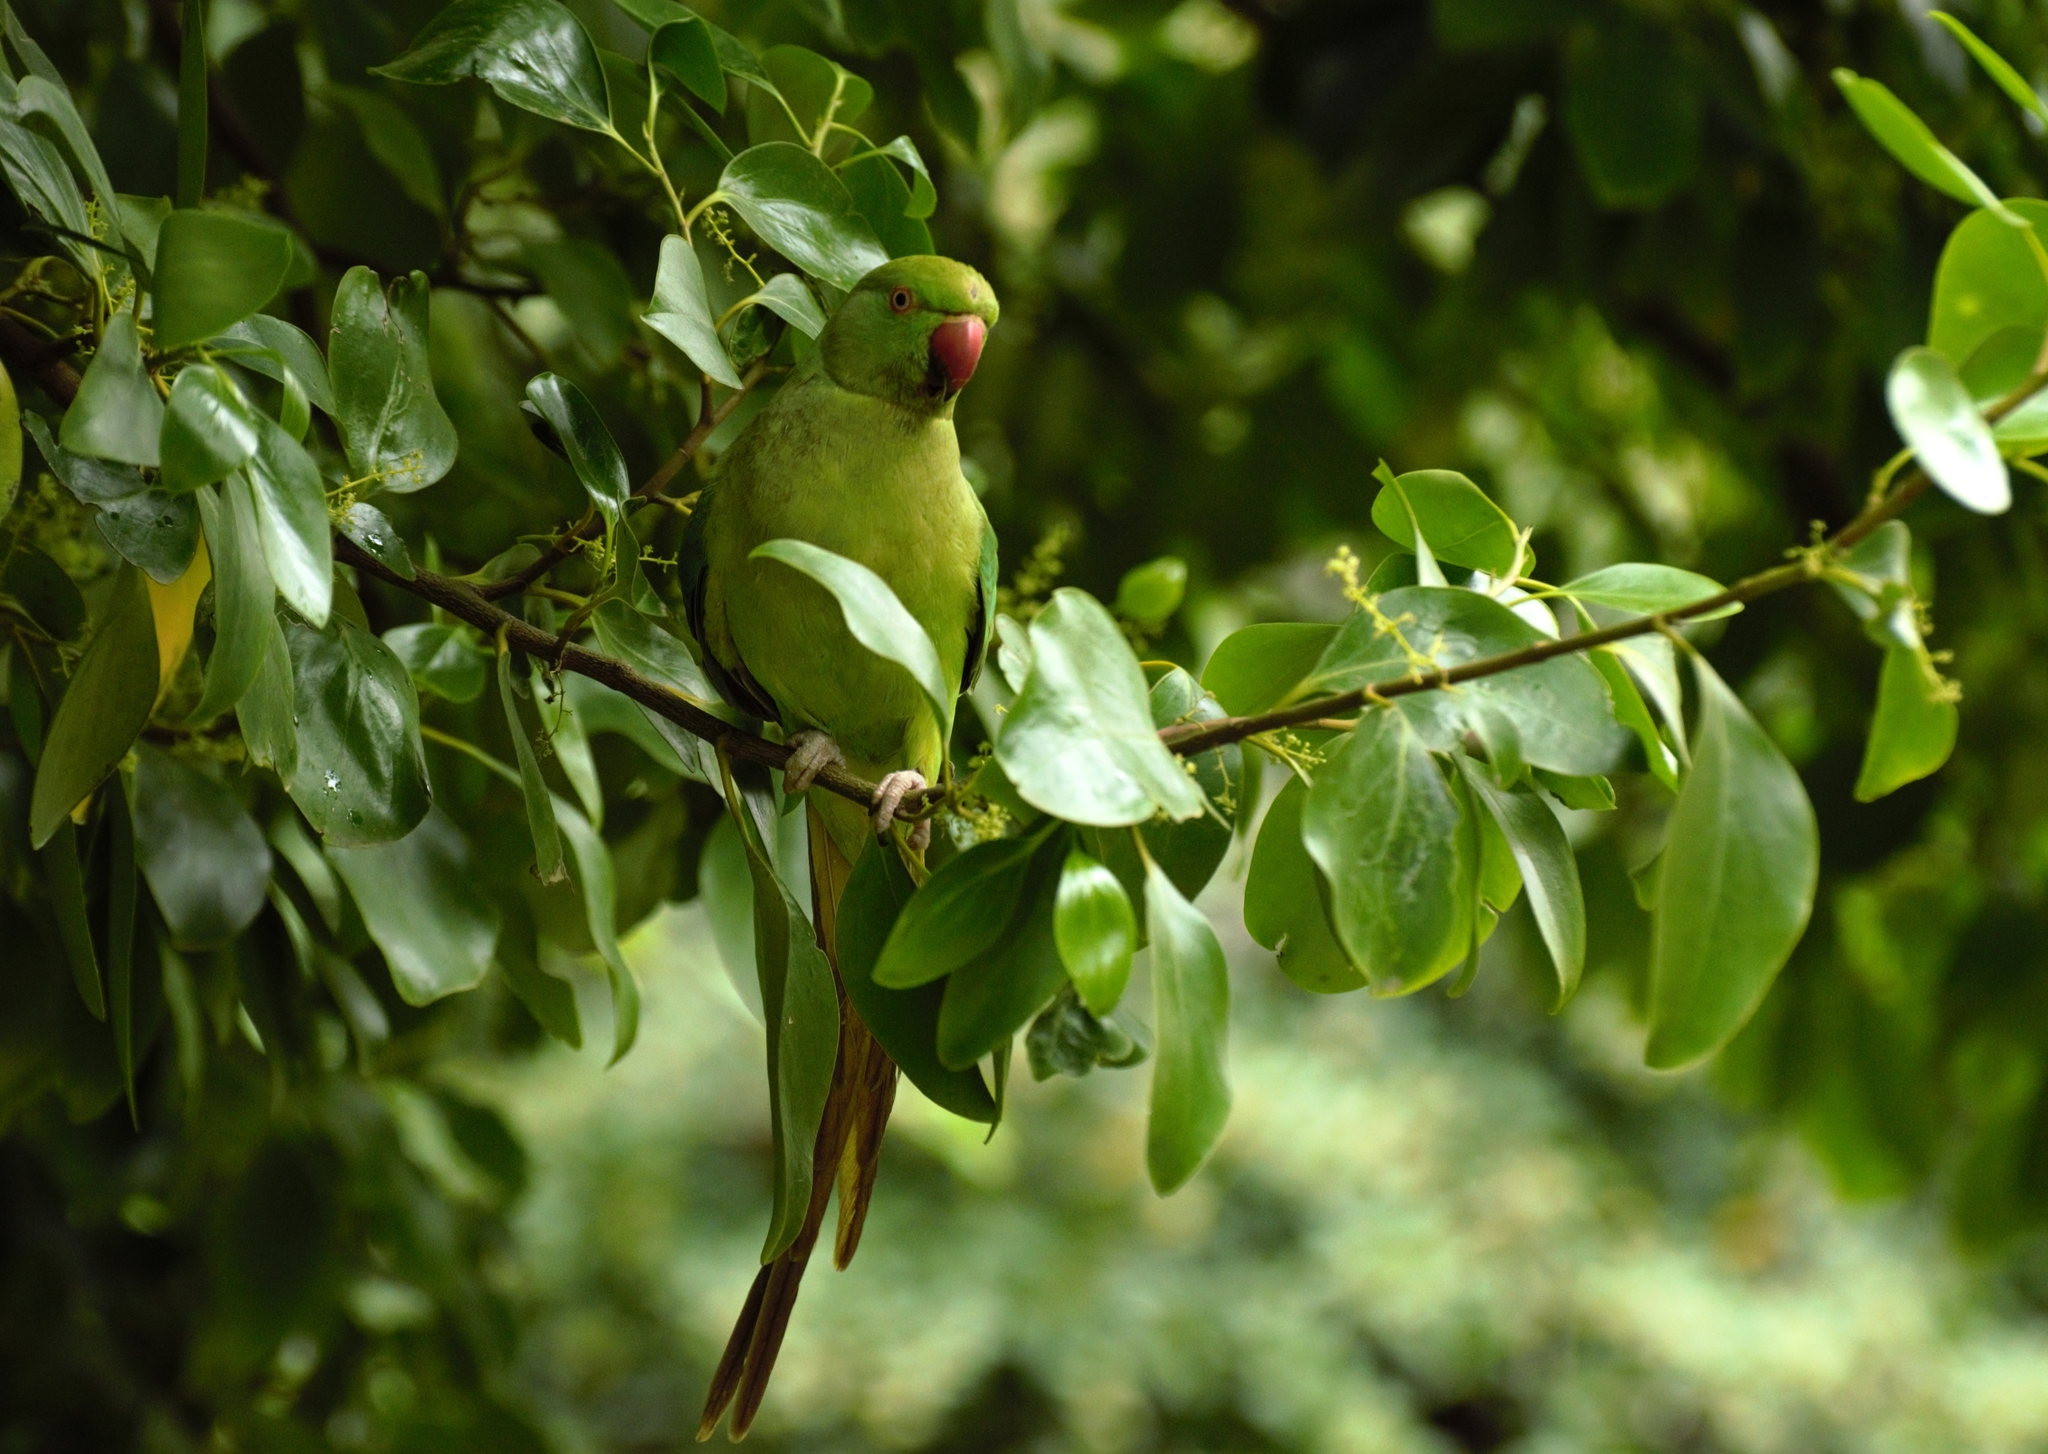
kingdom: Animalia
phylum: Chordata
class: Aves
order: Psittaciformes
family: Psittacidae
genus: Psittacula
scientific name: Psittacula krameri
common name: Rose-ringed parakeet
